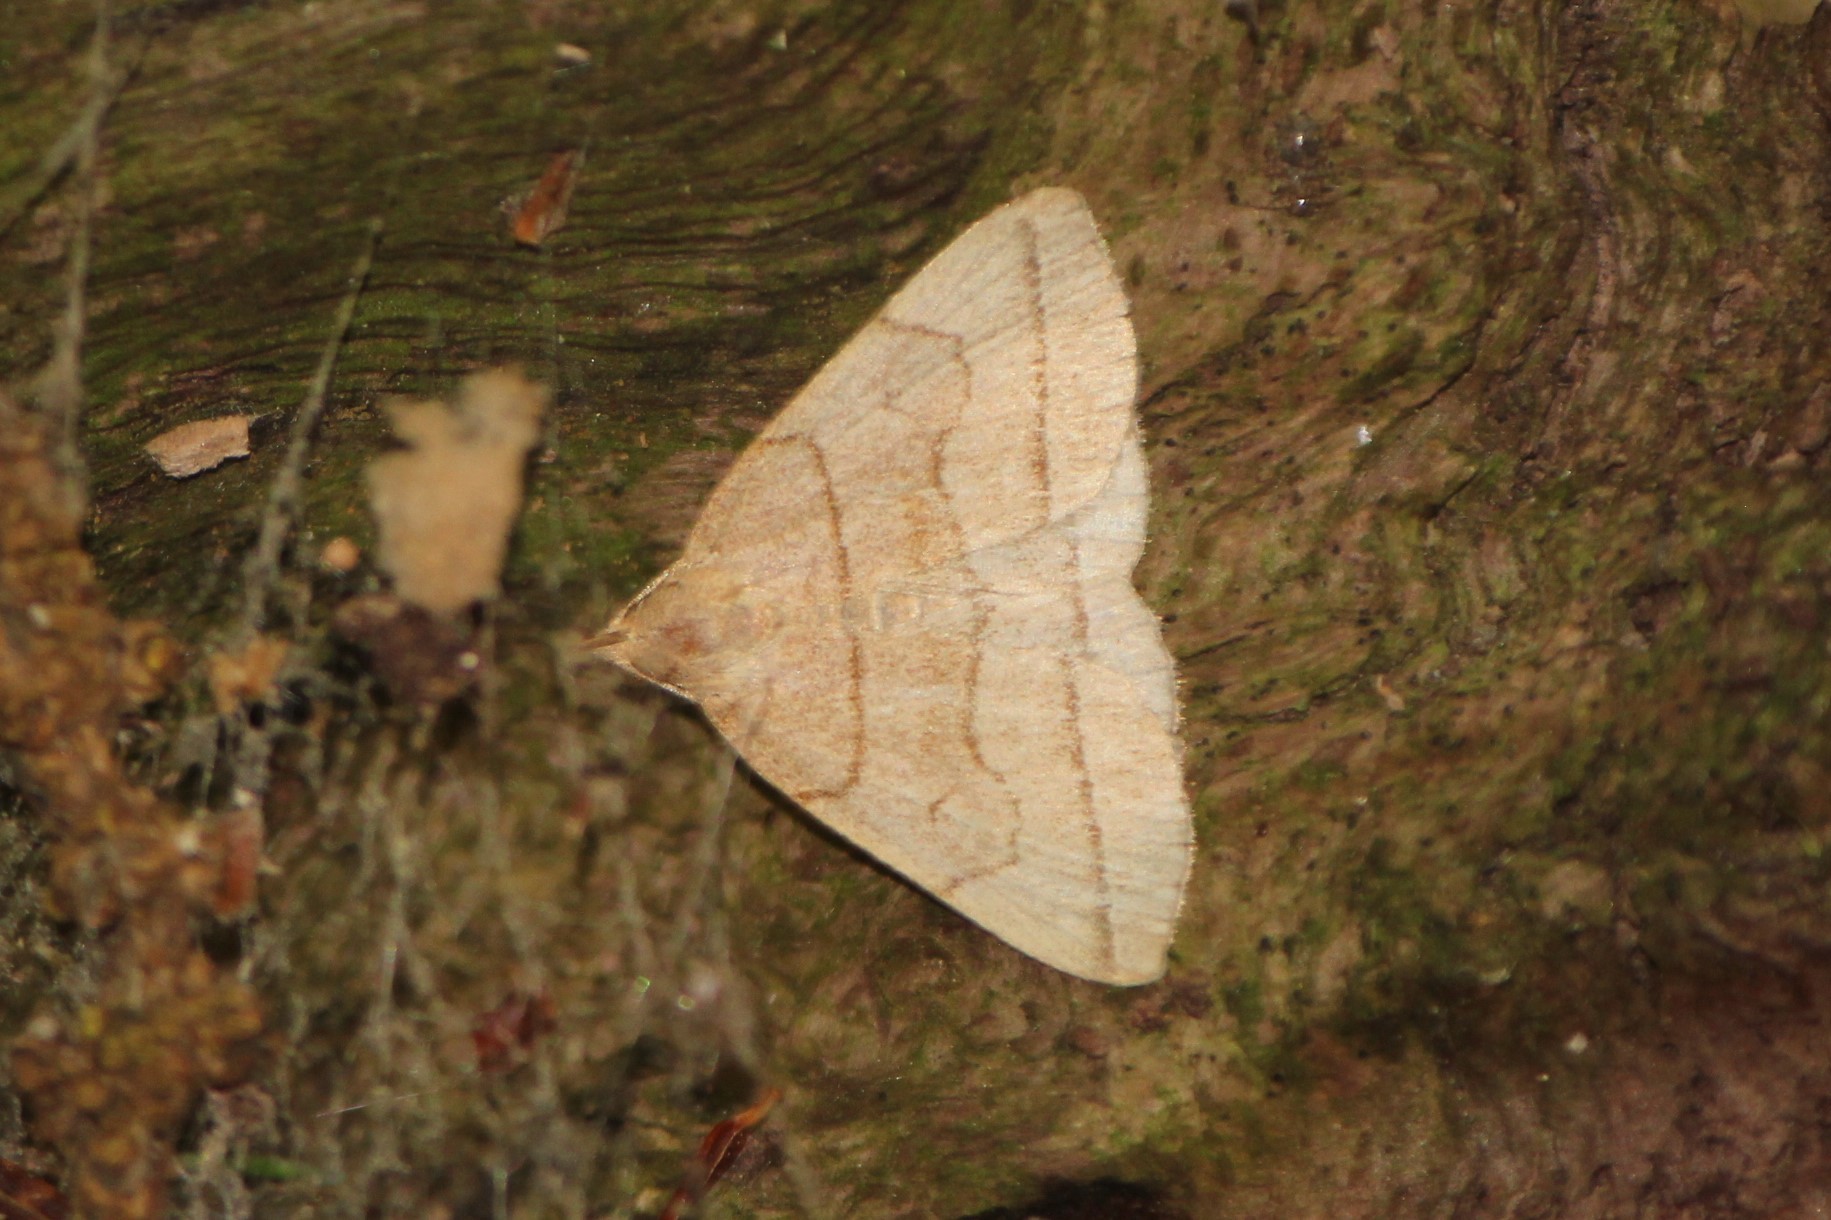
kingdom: Animalia
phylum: Arthropoda
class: Insecta
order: Lepidoptera
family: Erebidae
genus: Zanclognatha
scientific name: Zanclognatha cruralis
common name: Early fan-foot
